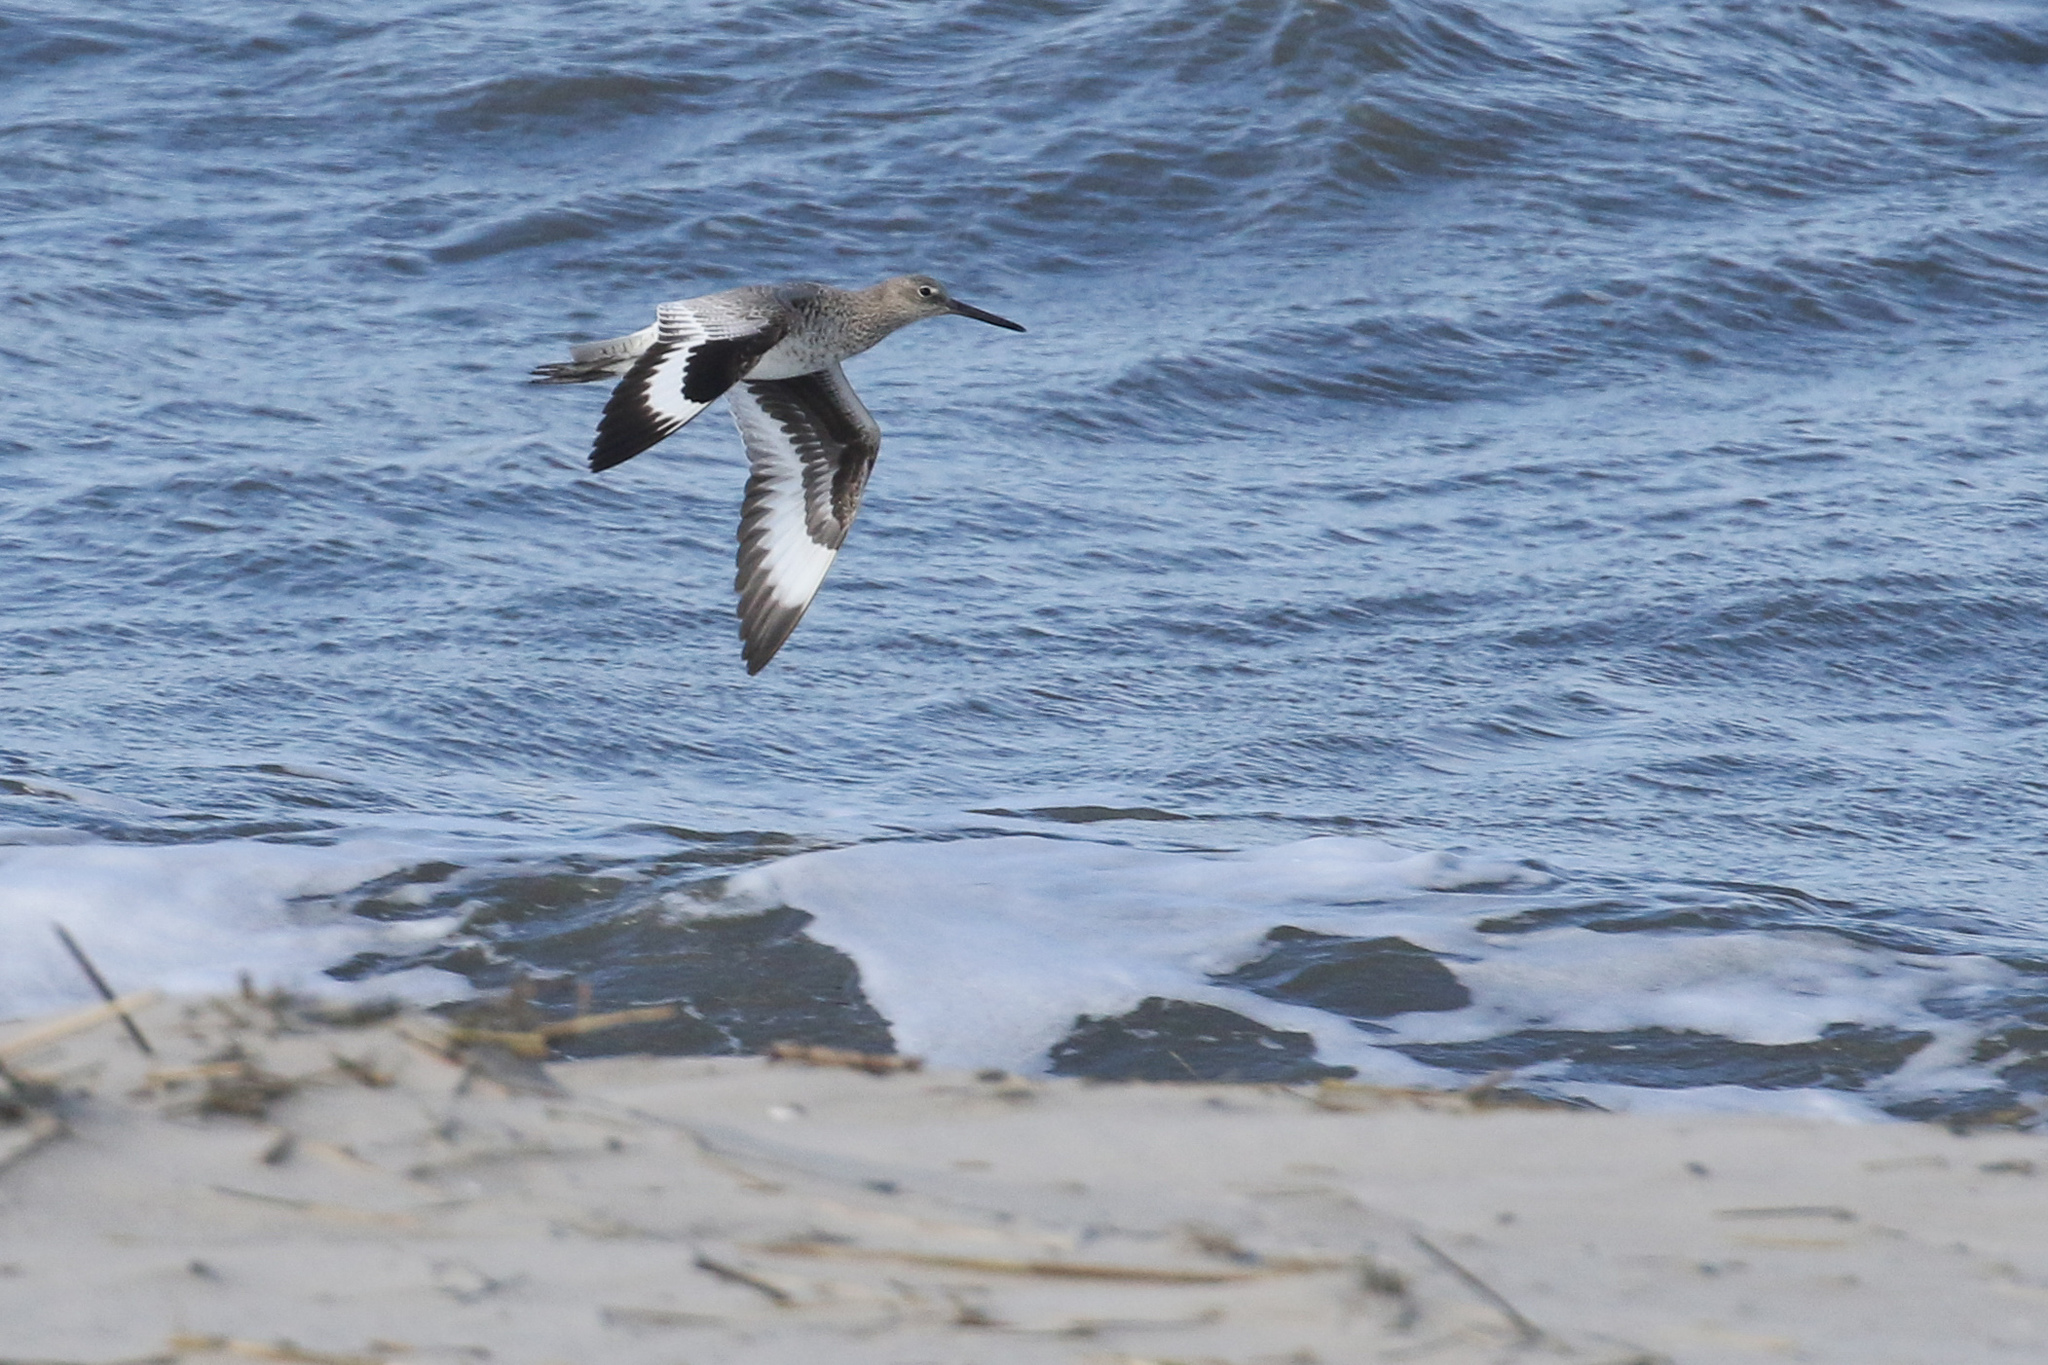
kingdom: Animalia
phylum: Chordata
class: Aves
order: Charadriiformes
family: Scolopacidae
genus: Tringa
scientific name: Tringa semipalmata
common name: Willet
